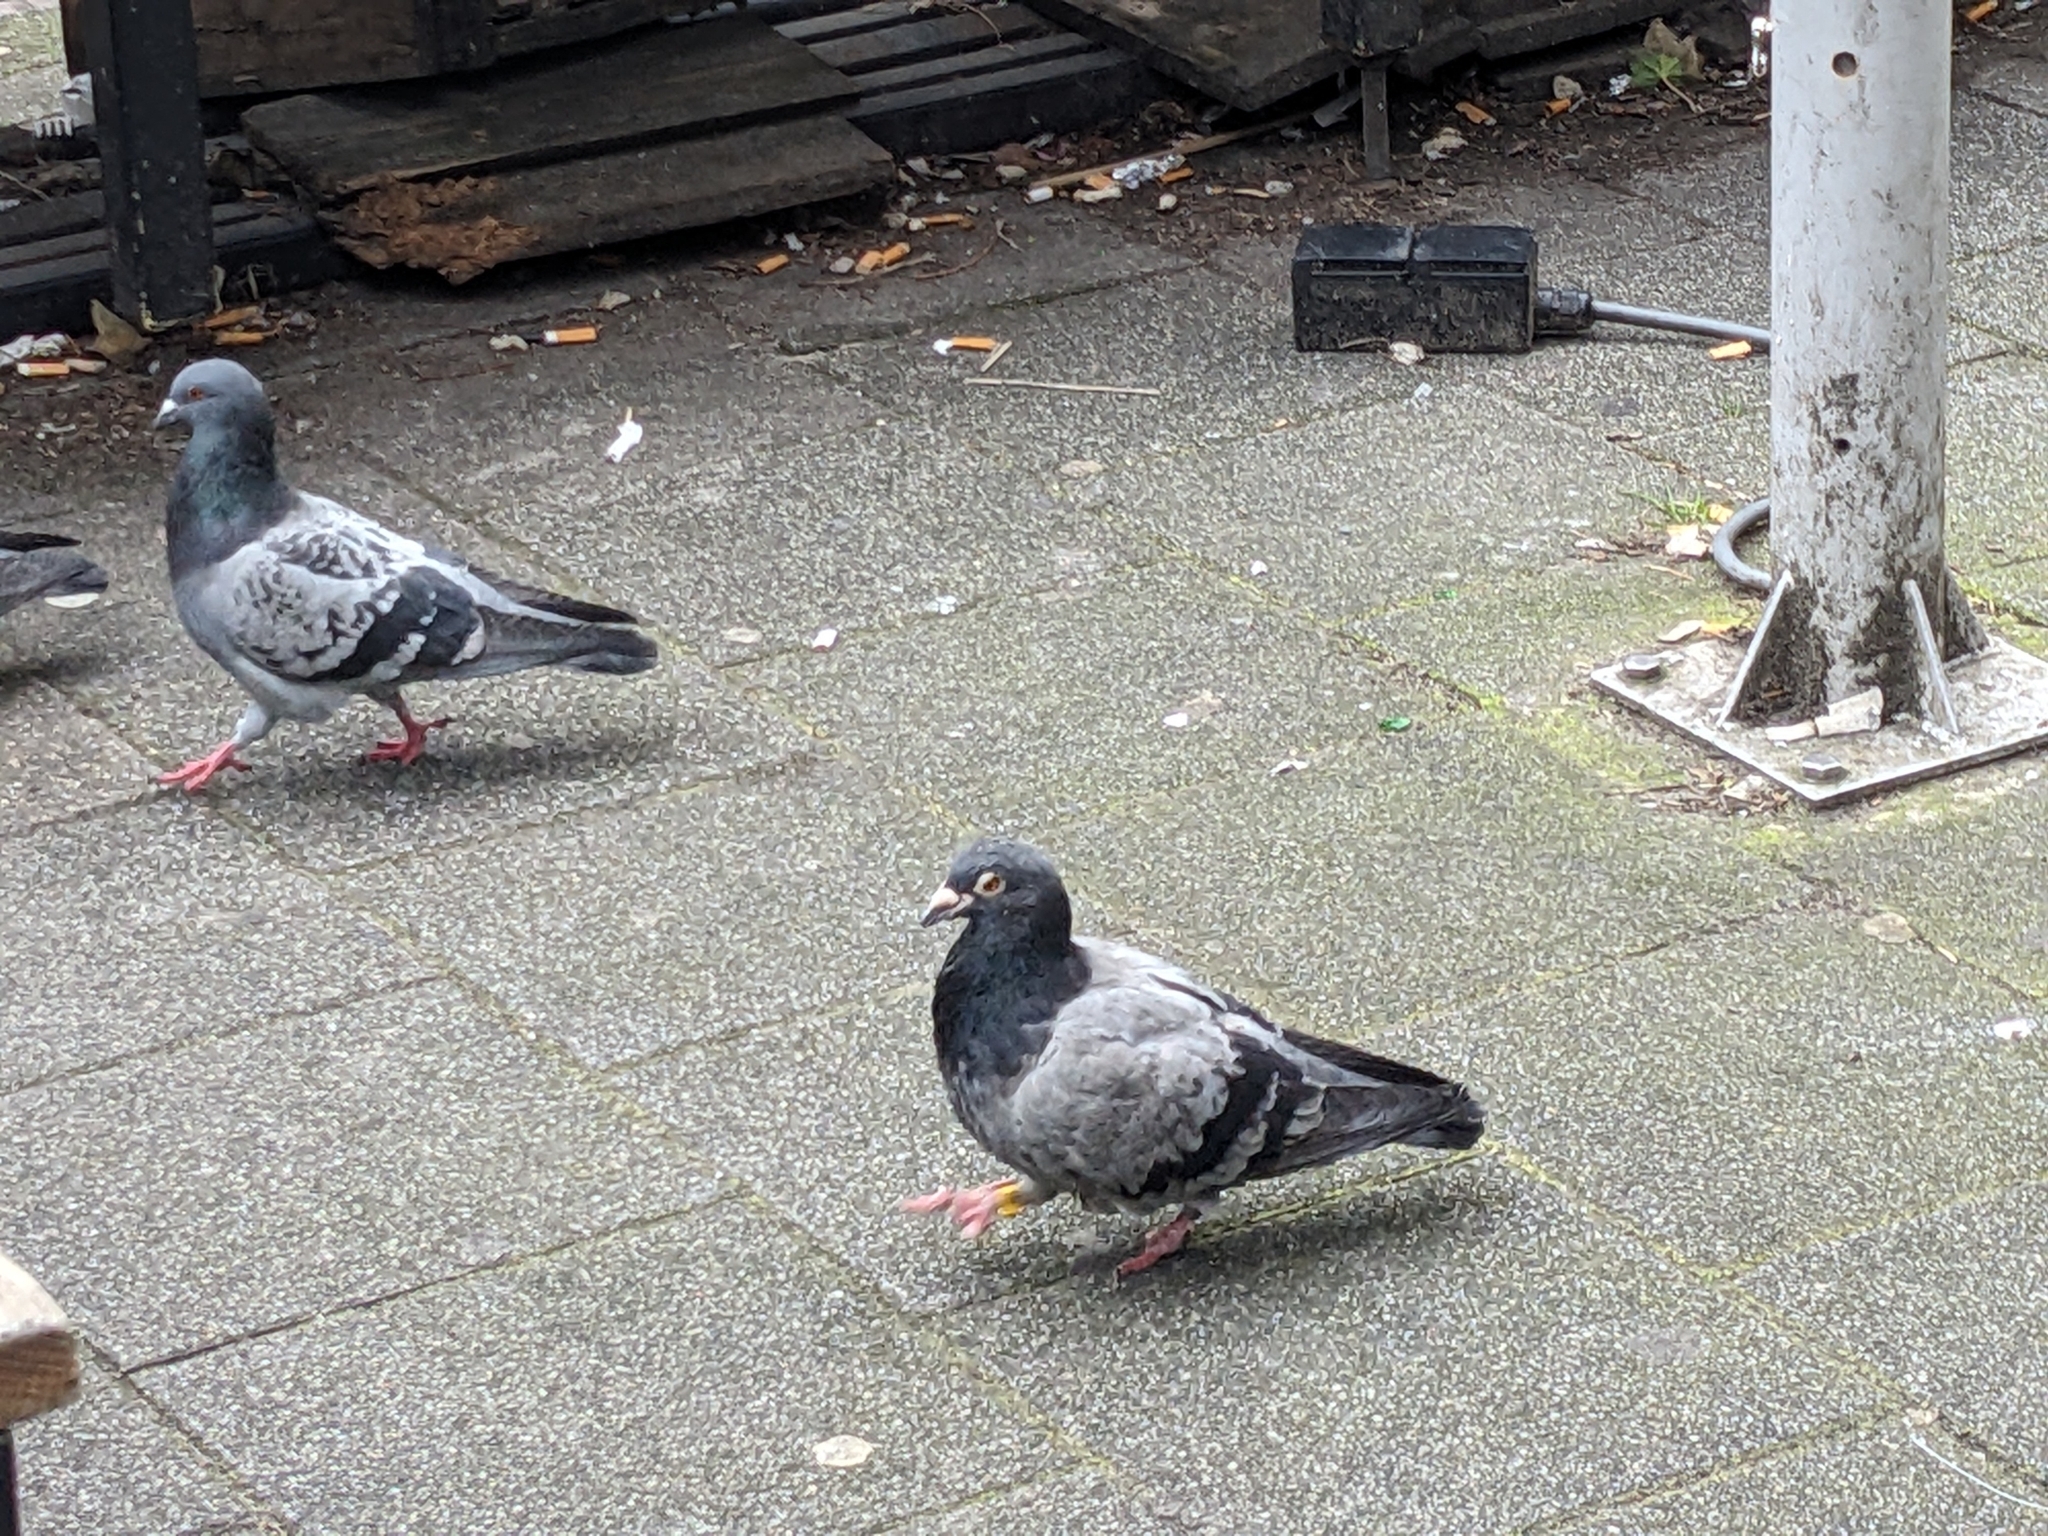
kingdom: Animalia
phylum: Chordata
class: Aves
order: Columbiformes
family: Columbidae
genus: Columba
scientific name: Columba livia
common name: Rock pigeon
